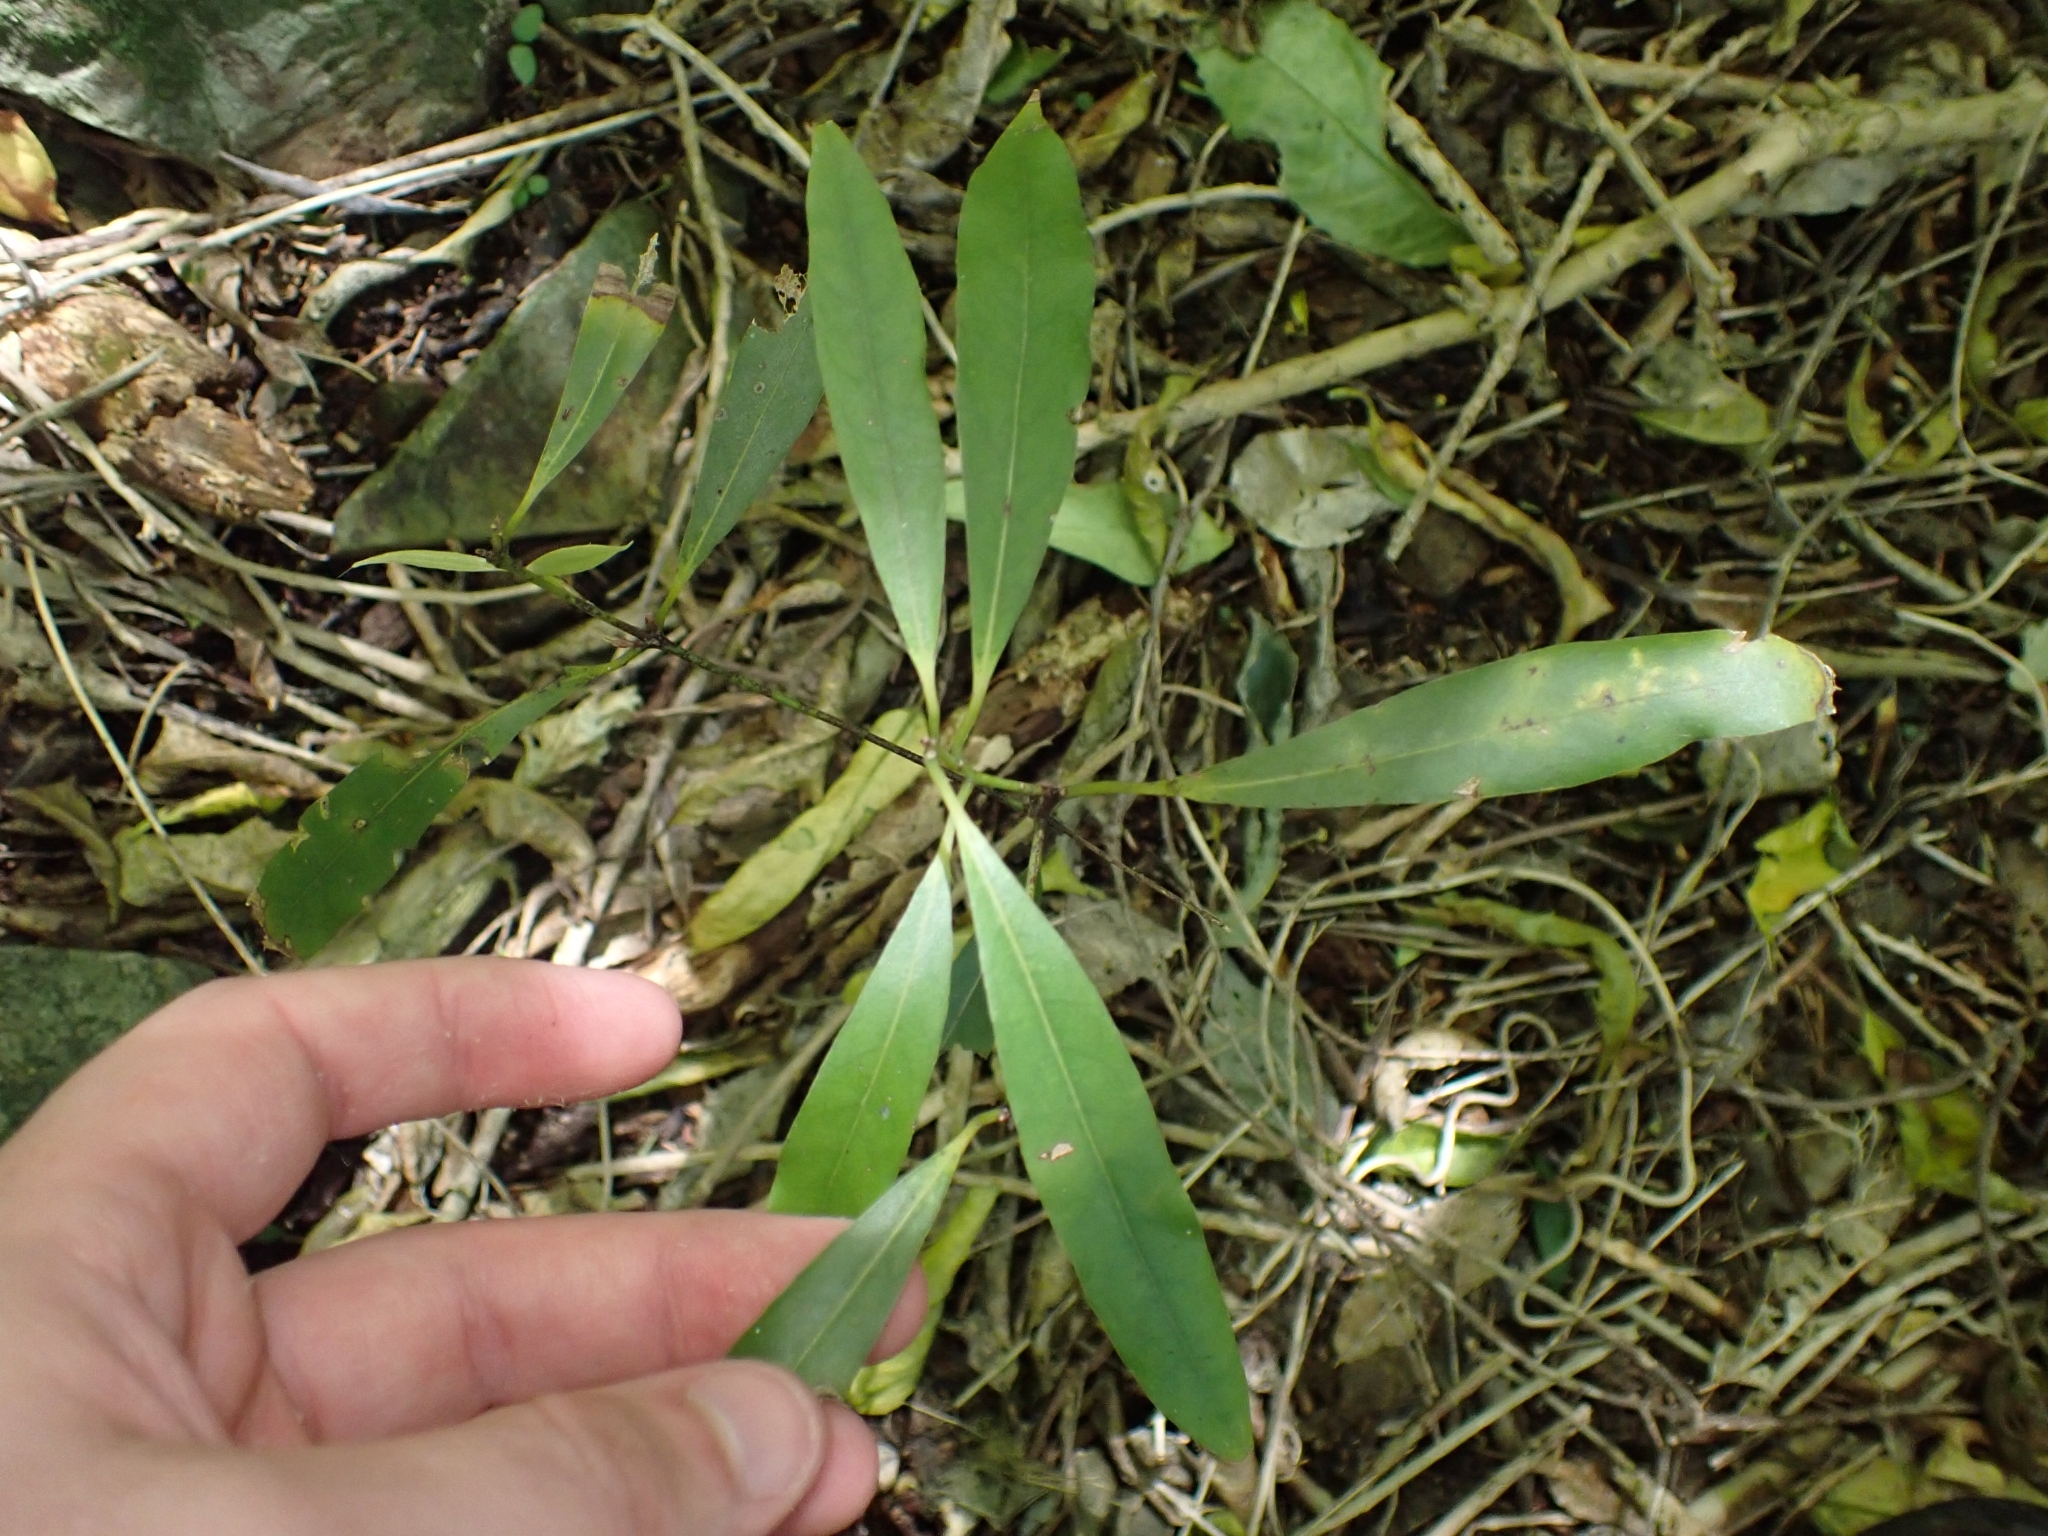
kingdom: Plantae
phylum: Tracheophyta
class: Magnoliopsida
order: Laurales
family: Lauraceae
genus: Beilschmiedia
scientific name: Beilschmiedia tawa
